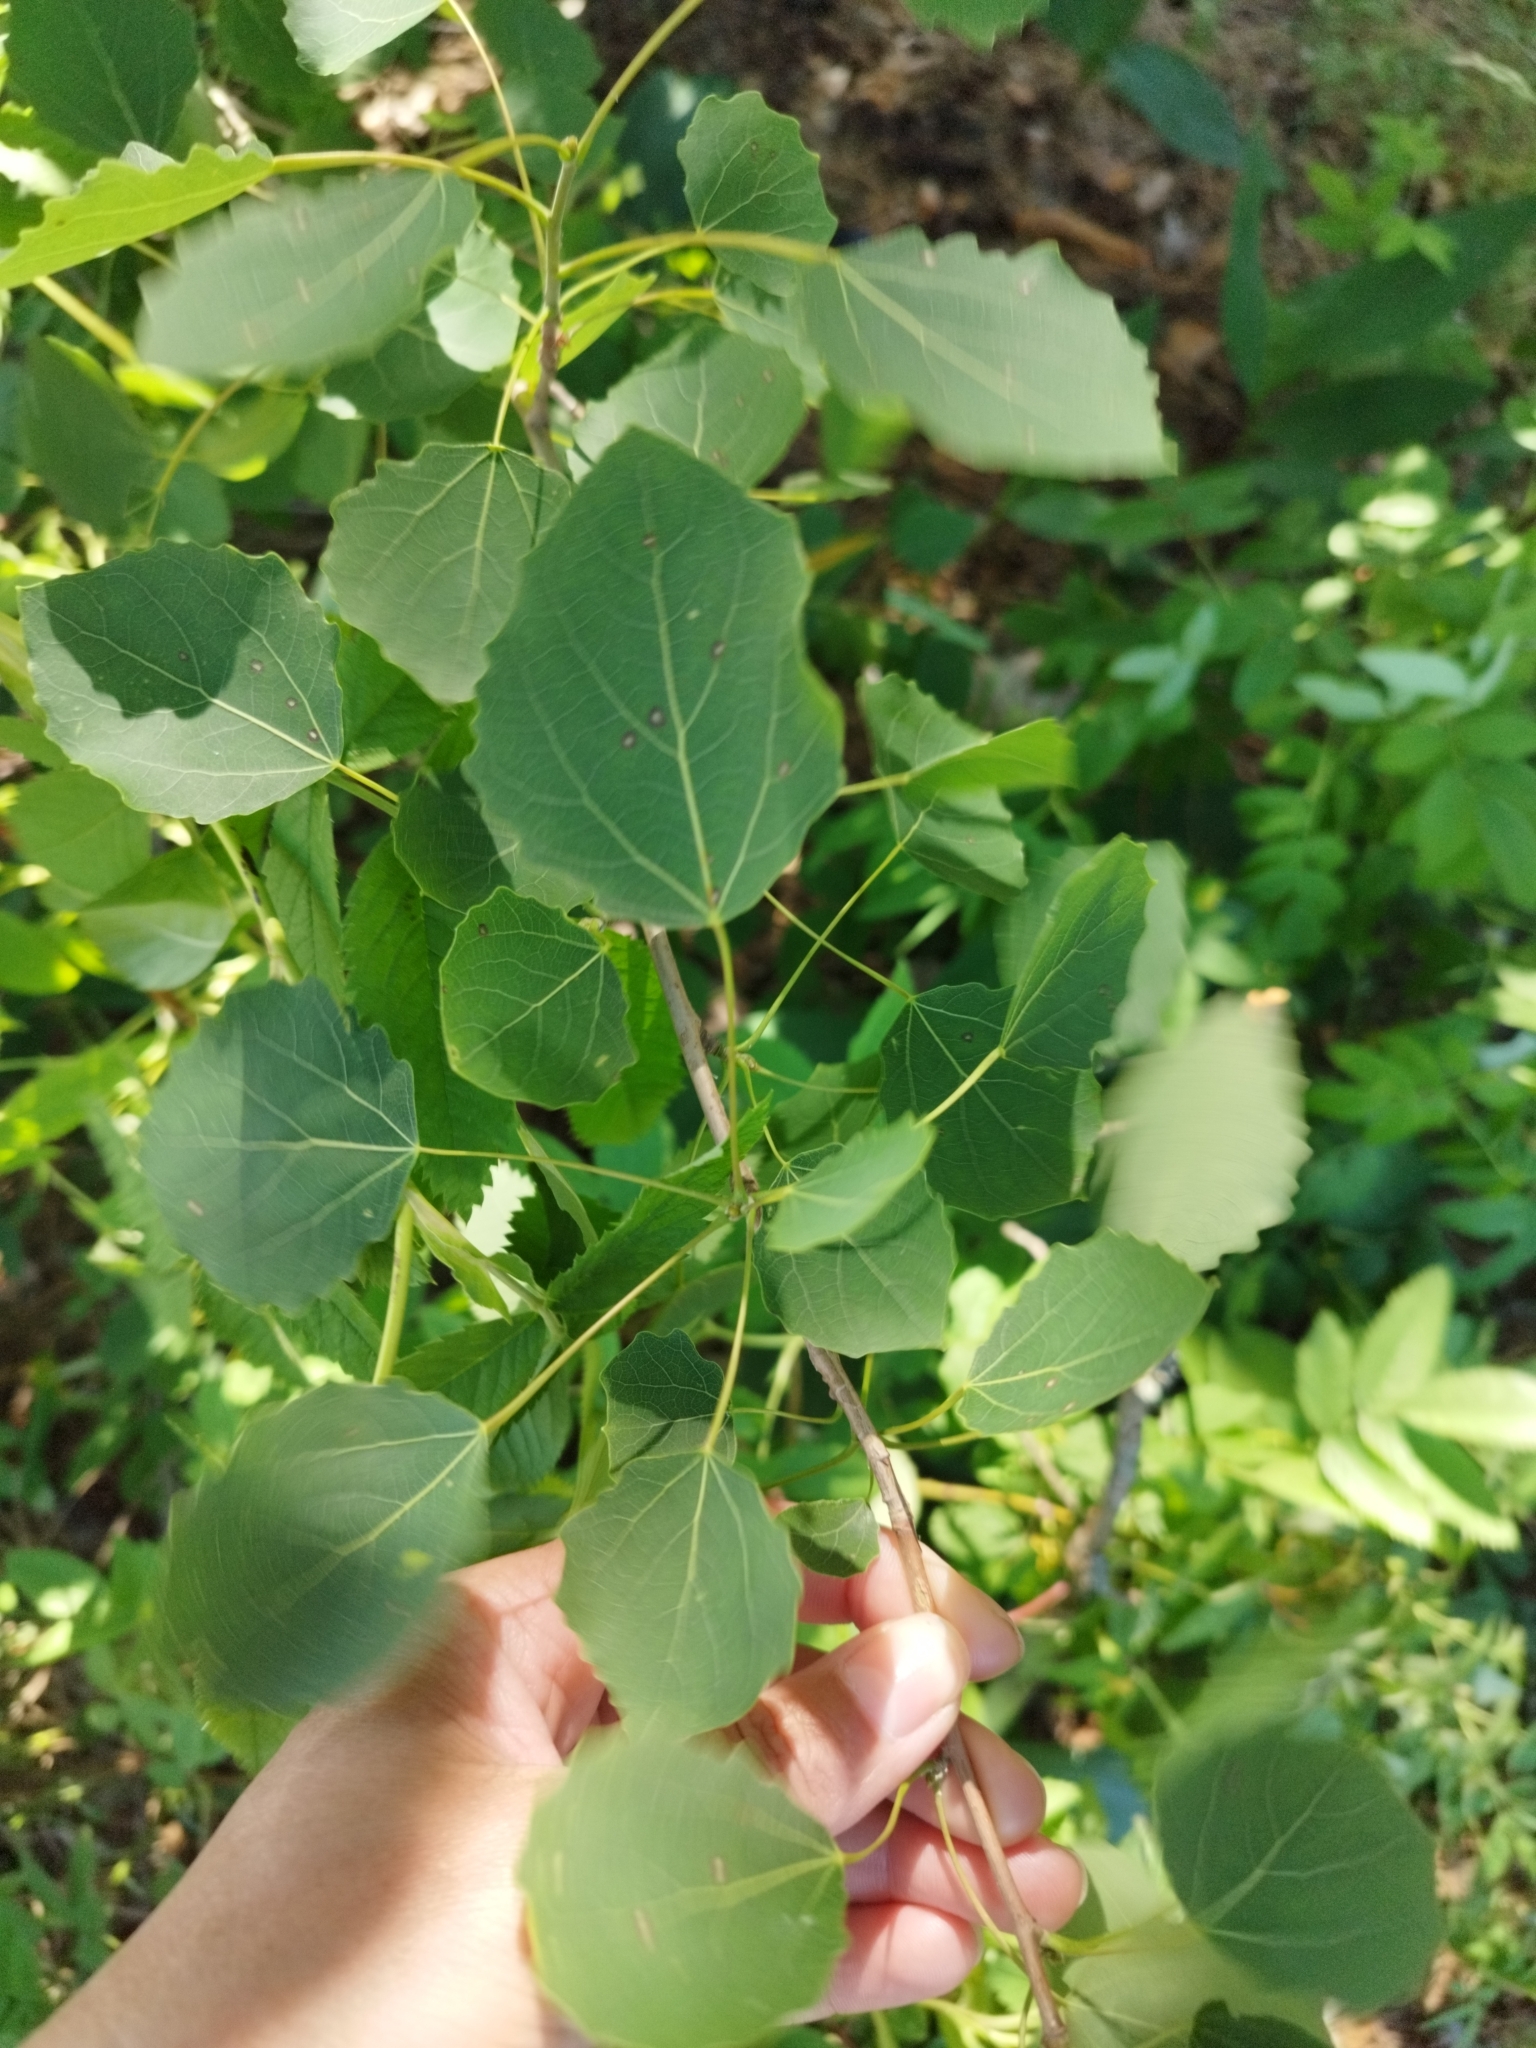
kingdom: Plantae
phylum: Tracheophyta
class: Magnoliopsida
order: Malpighiales
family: Salicaceae
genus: Populus
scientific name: Populus tremula
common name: European aspen
